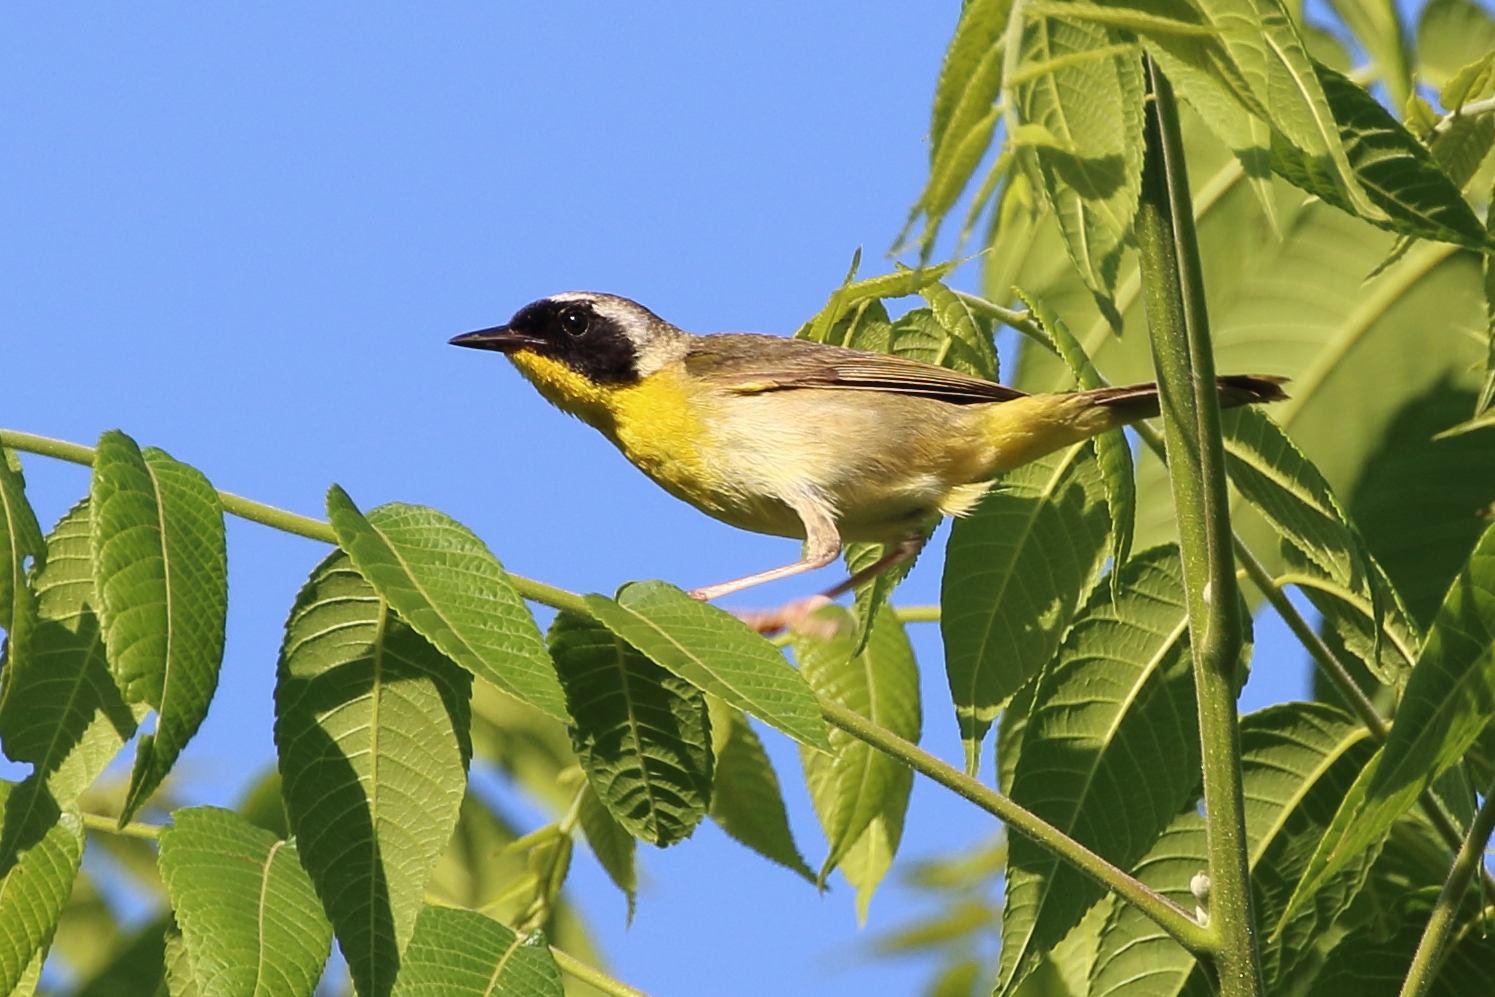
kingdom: Animalia
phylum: Chordata
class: Aves
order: Passeriformes
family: Parulidae
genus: Geothlypis
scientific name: Geothlypis trichas
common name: Common yellowthroat
